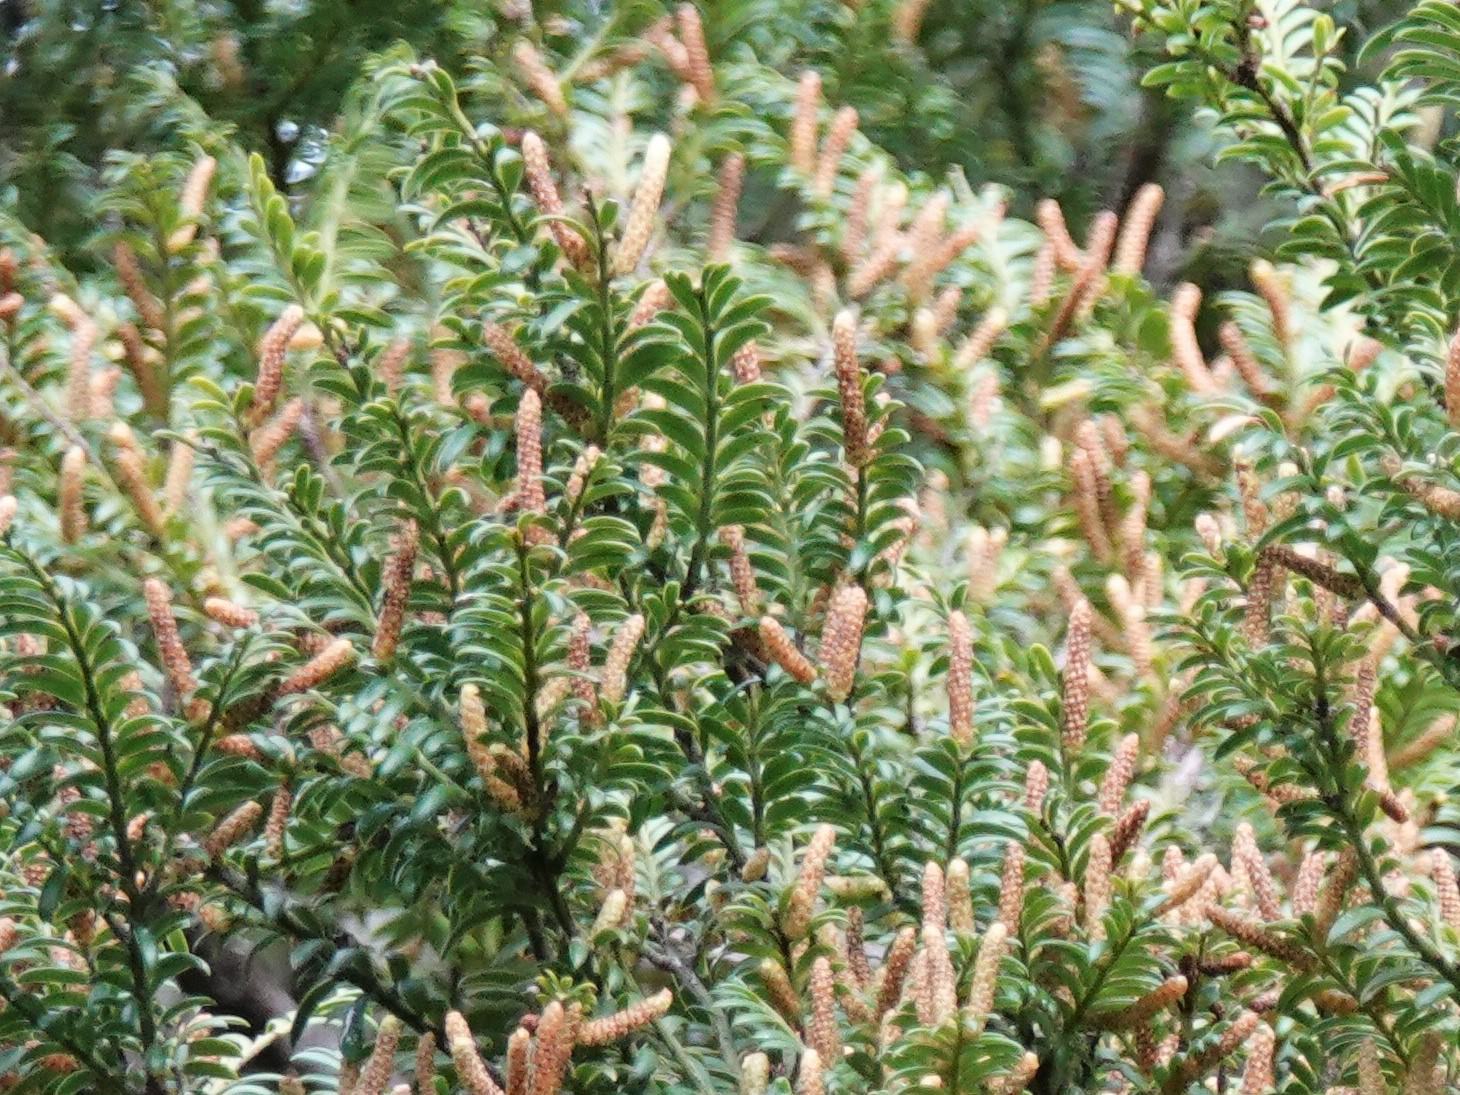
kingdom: Plantae
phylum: Tracheophyta
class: Pinopsida
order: Pinales
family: Podocarpaceae
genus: Prumnopitys
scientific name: Prumnopitys ferruginea
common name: Brown pine
